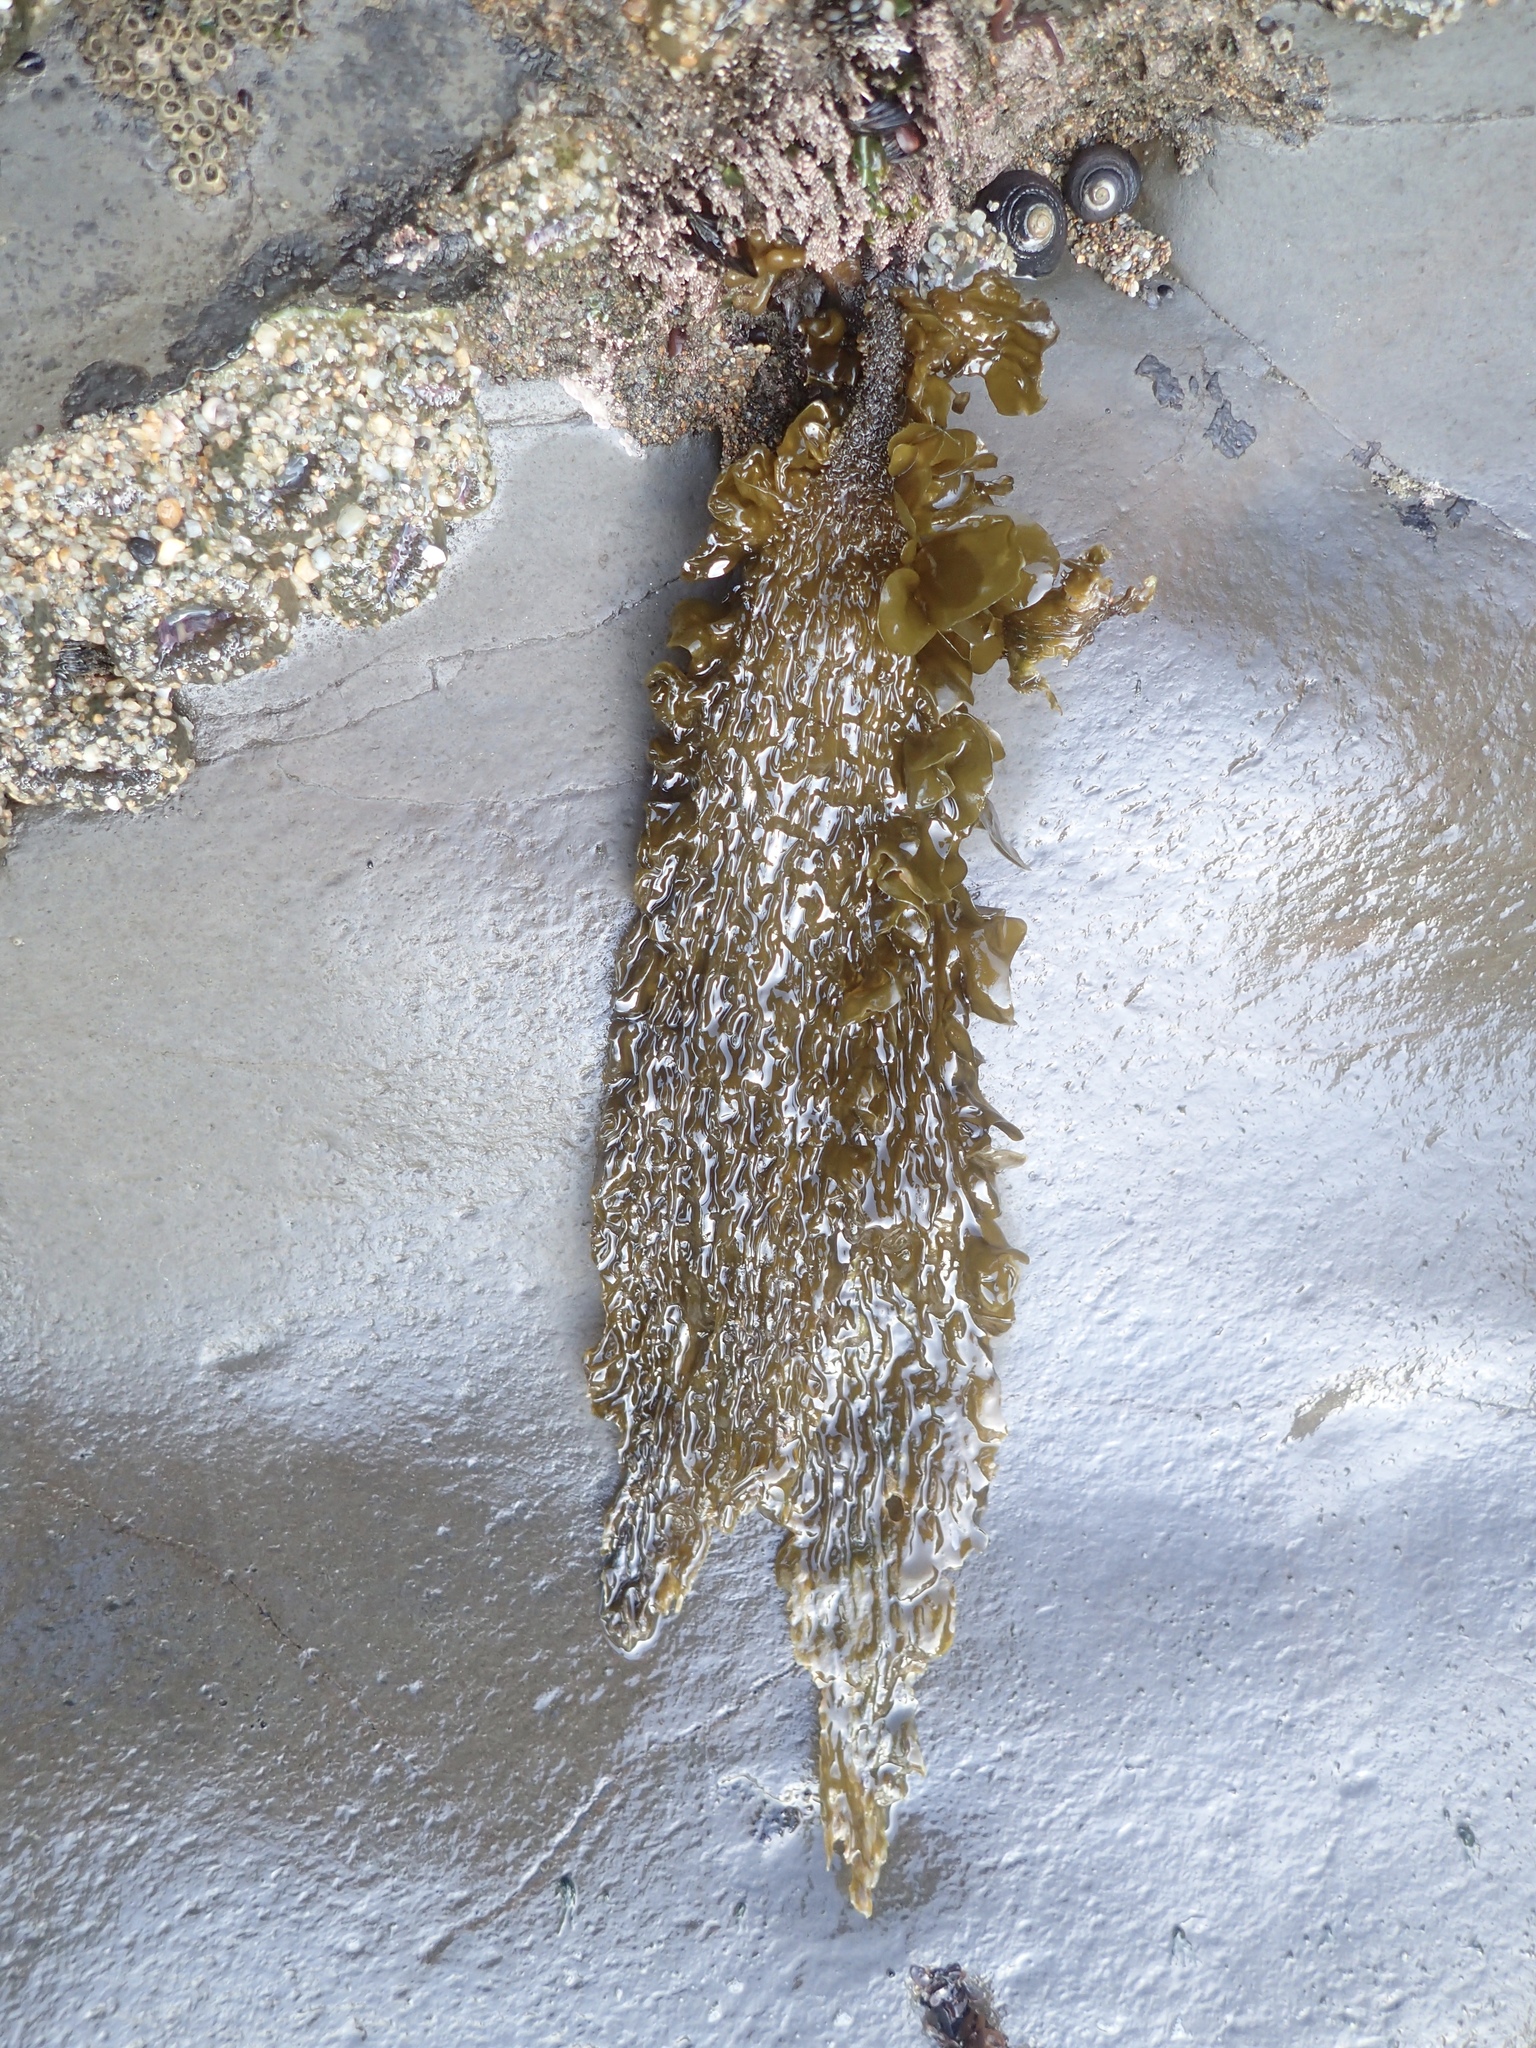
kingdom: Chromista
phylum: Ochrophyta
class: Phaeophyceae
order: Laminariales
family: Lessoniaceae
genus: Egregia
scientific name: Egregia menziesii
